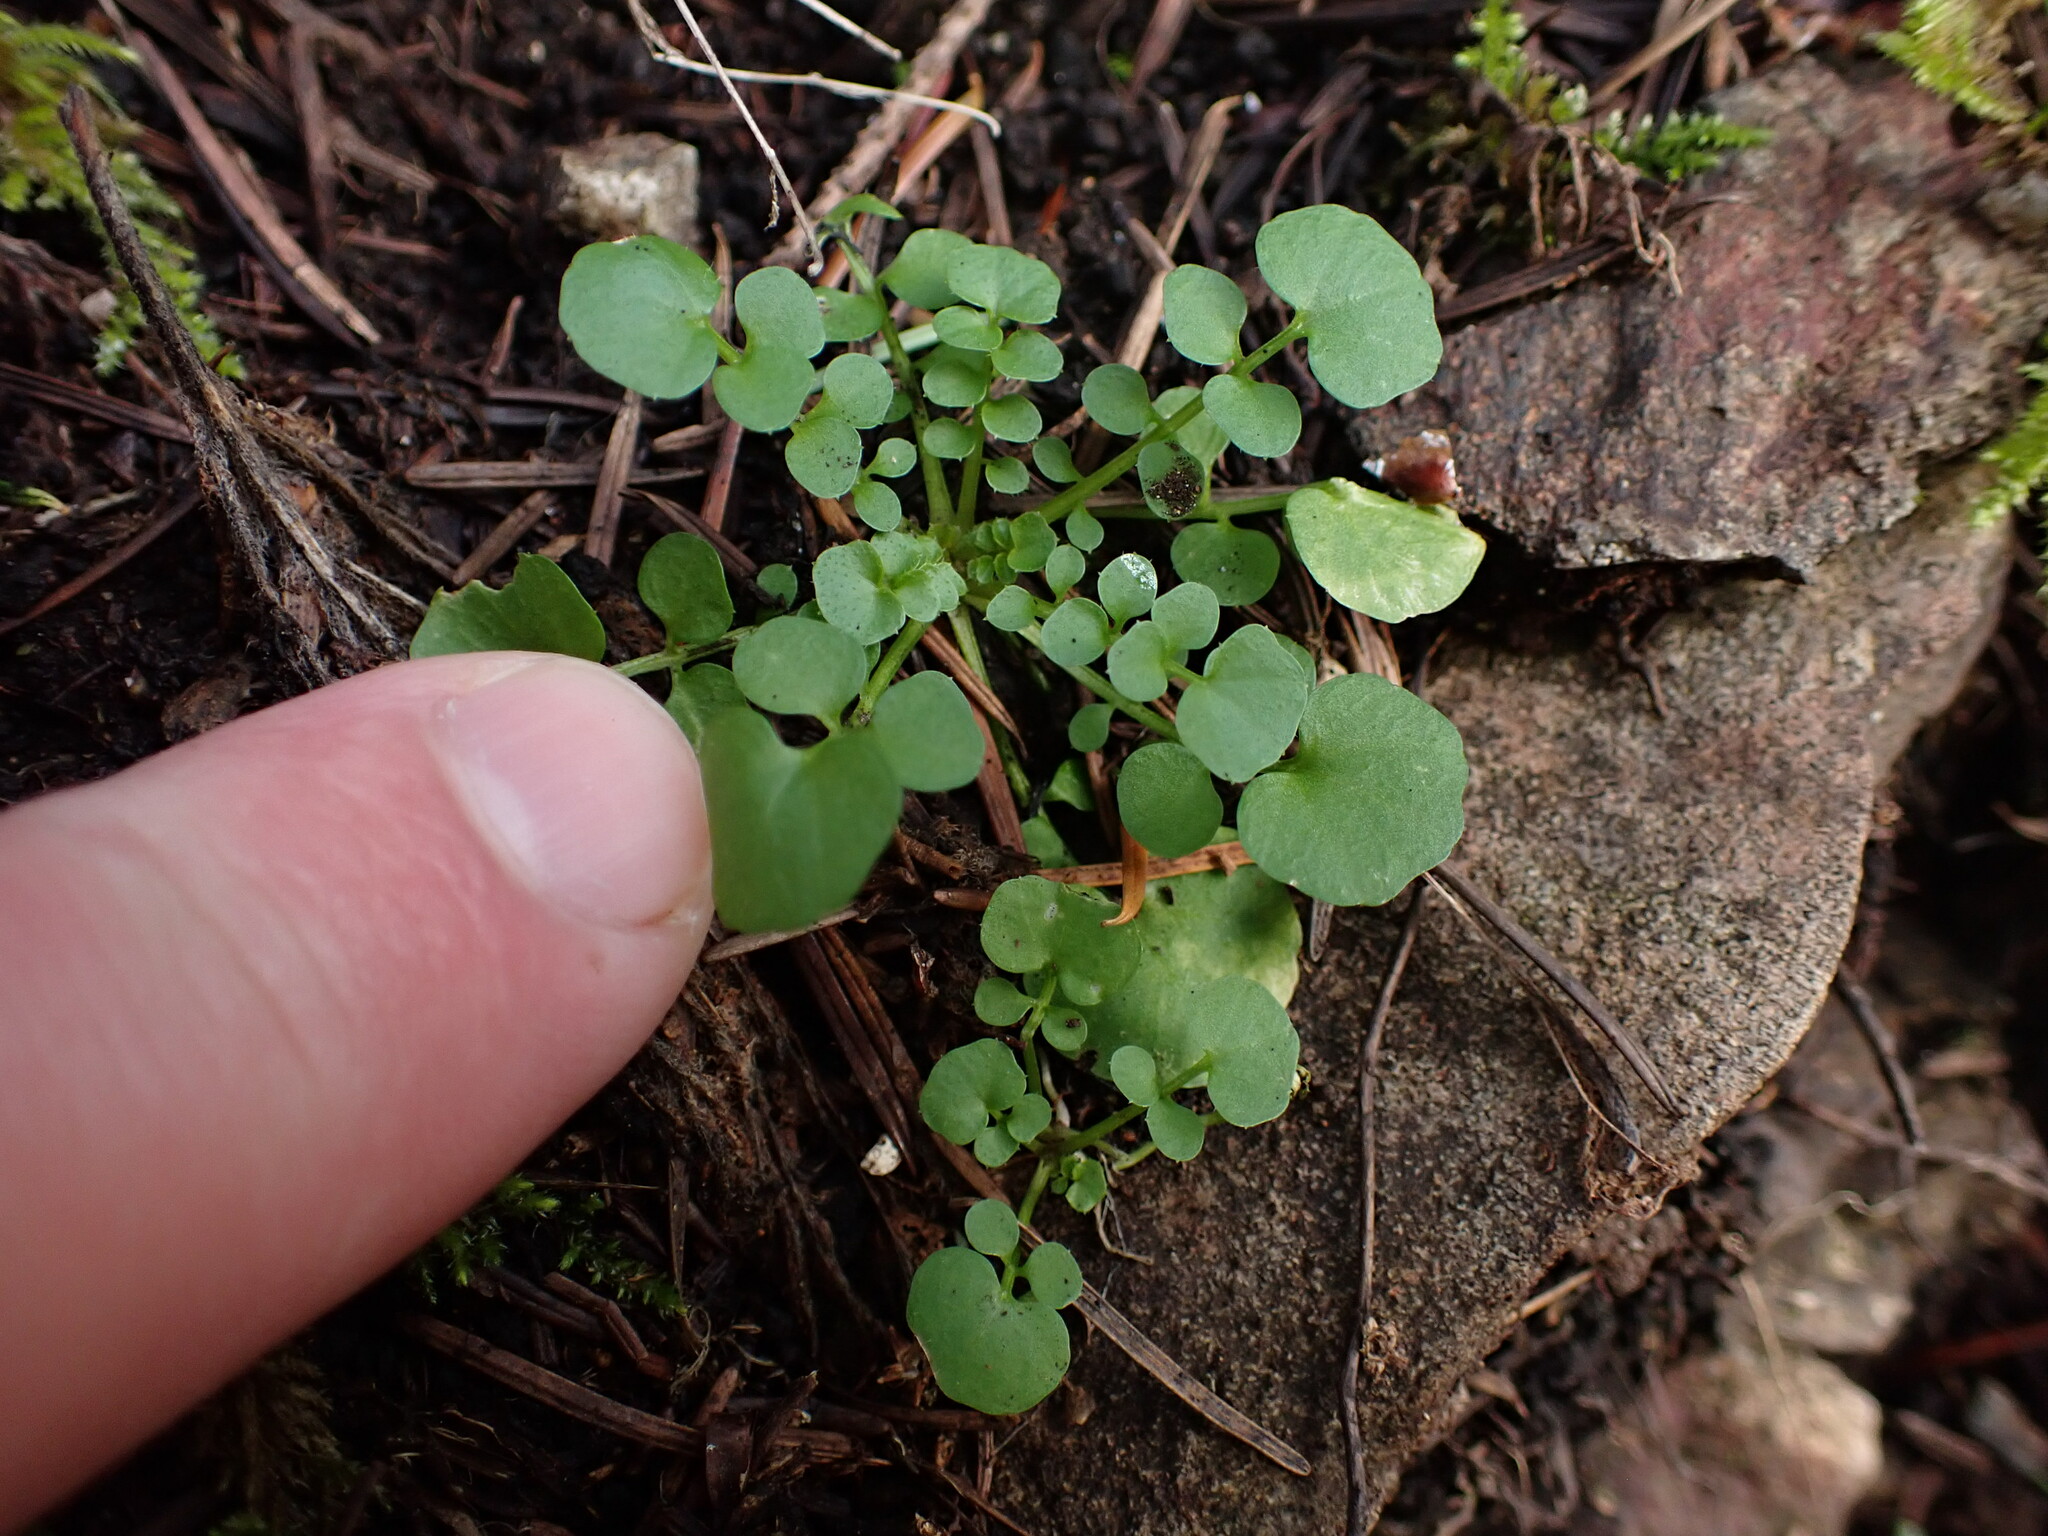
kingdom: Plantae
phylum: Tracheophyta
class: Magnoliopsida
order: Brassicales
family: Brassicaceae
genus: Cardamine
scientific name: Cardamine hirsuta
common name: Hairy bittercress
